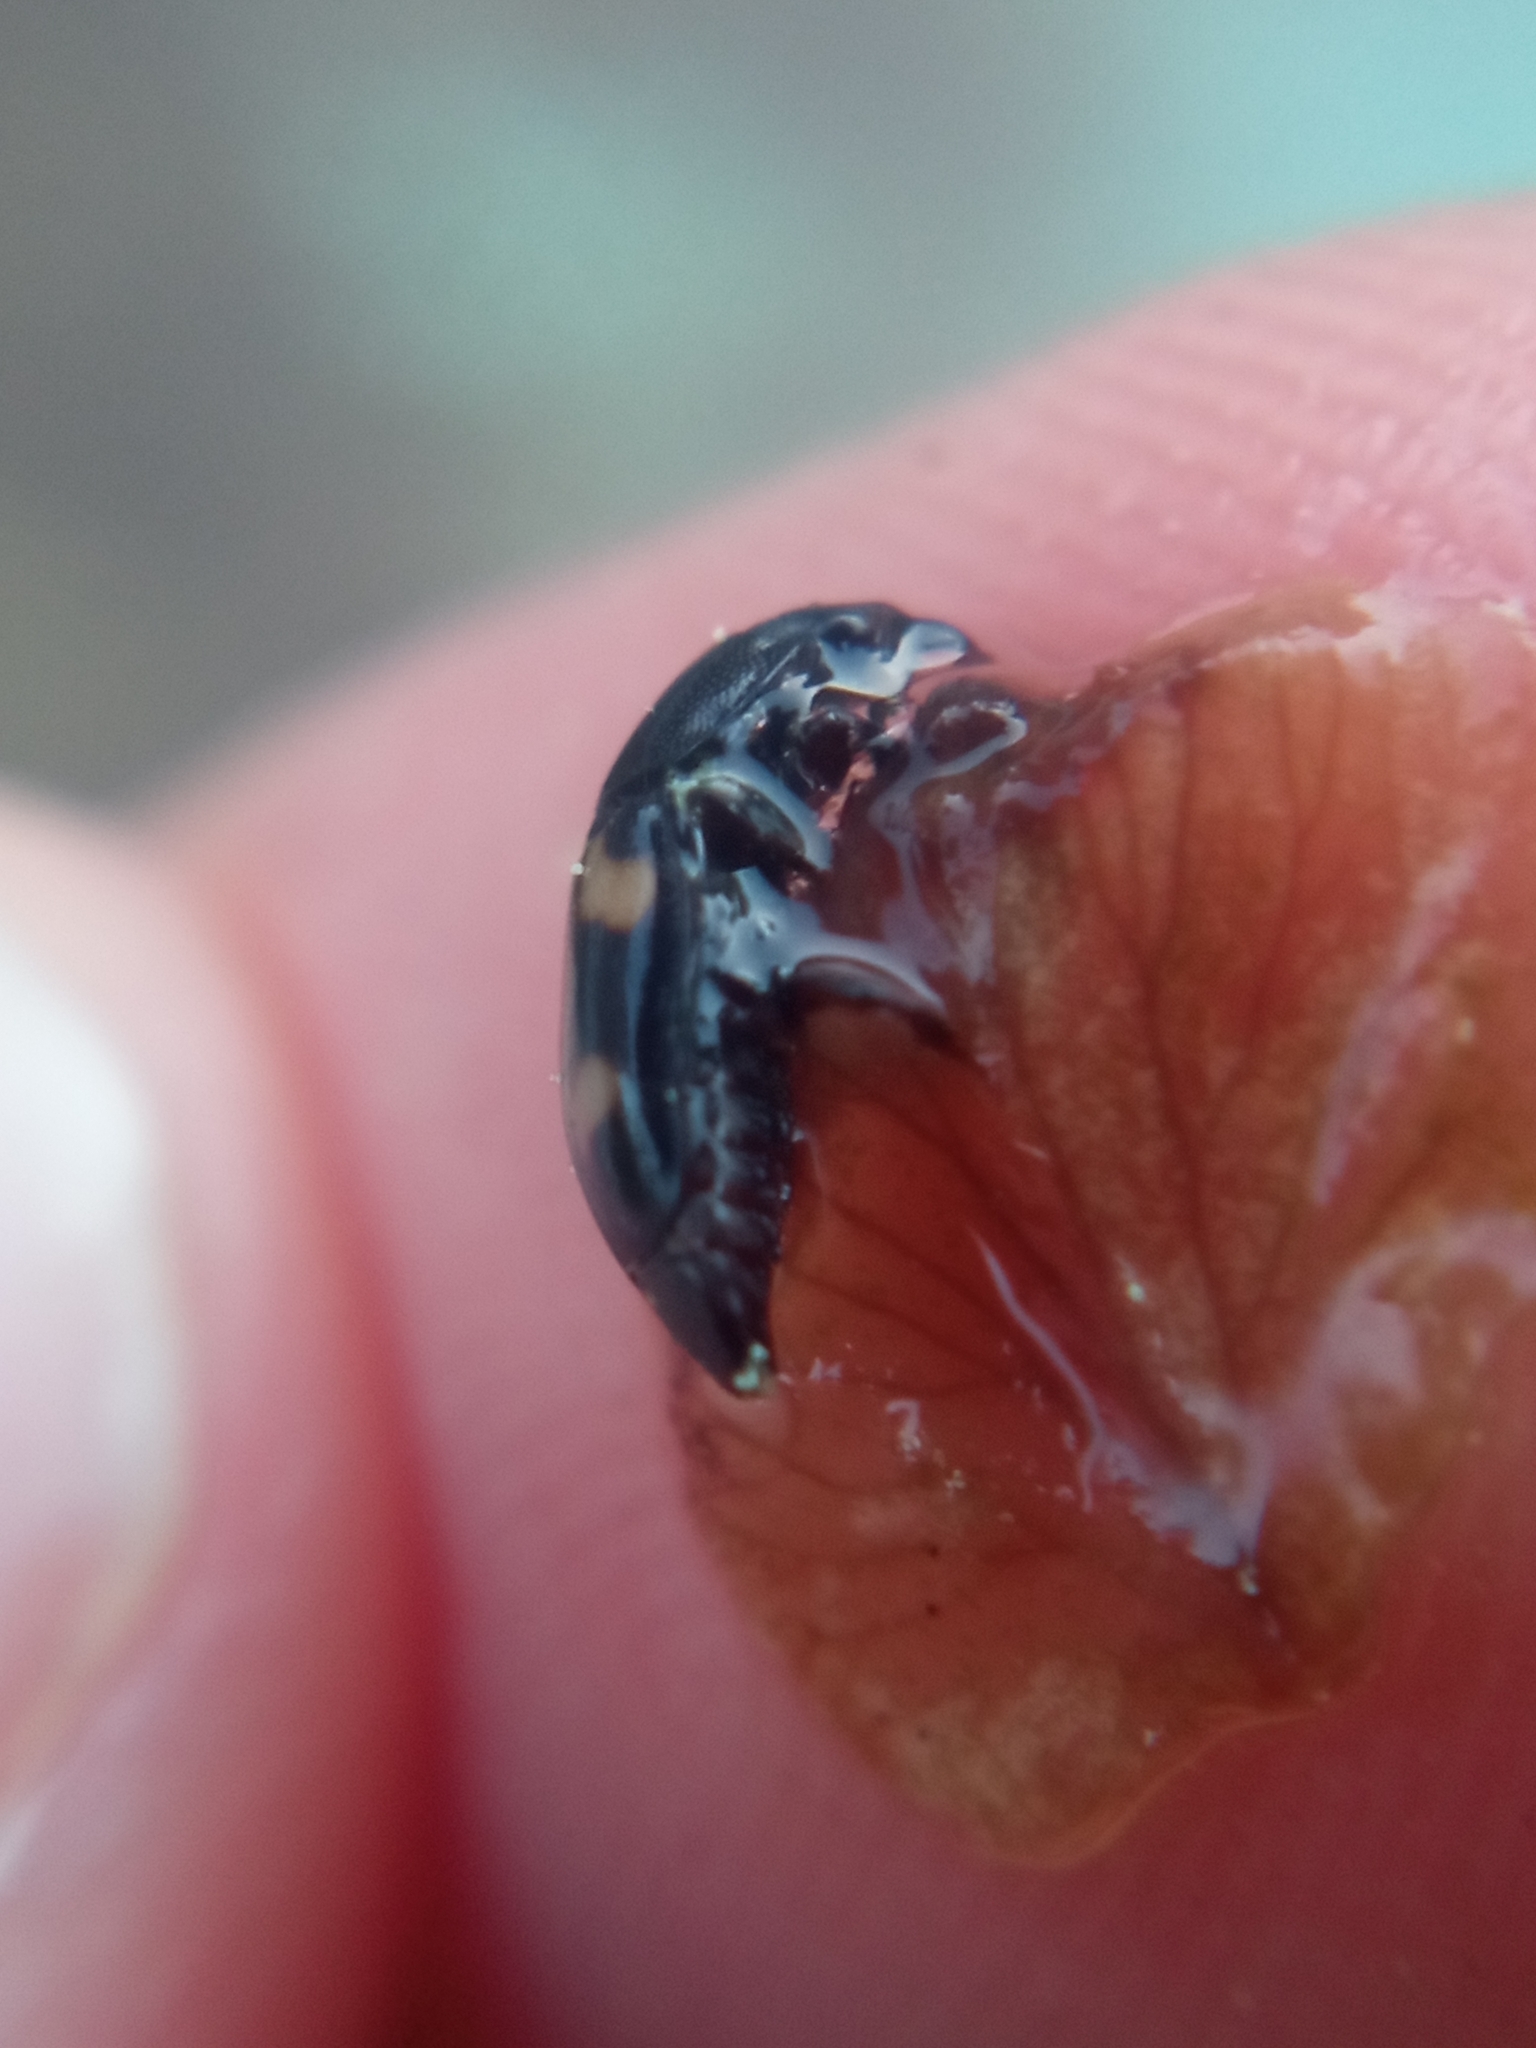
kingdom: Animalia
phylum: Arthropoda
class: Insecta
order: Coleoptera
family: Nitidulidae
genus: Glischrochilus
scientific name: Glischrochilus quadrisignatus
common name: Picnic beetle
